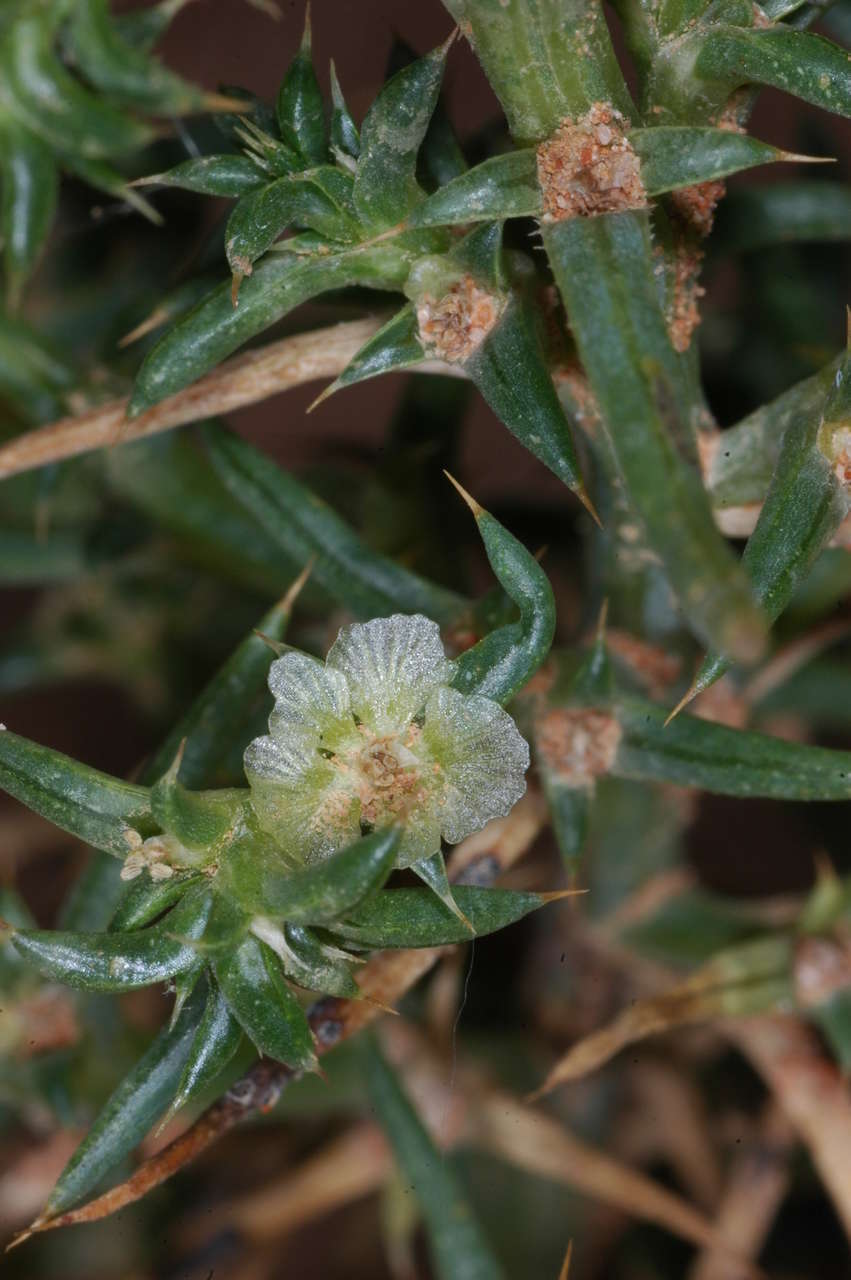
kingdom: Plantae
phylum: Tracheophyta
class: Magnoliopsida
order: Caryophyllales
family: Amaranthaceae
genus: Salsola
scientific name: Salsola australis
